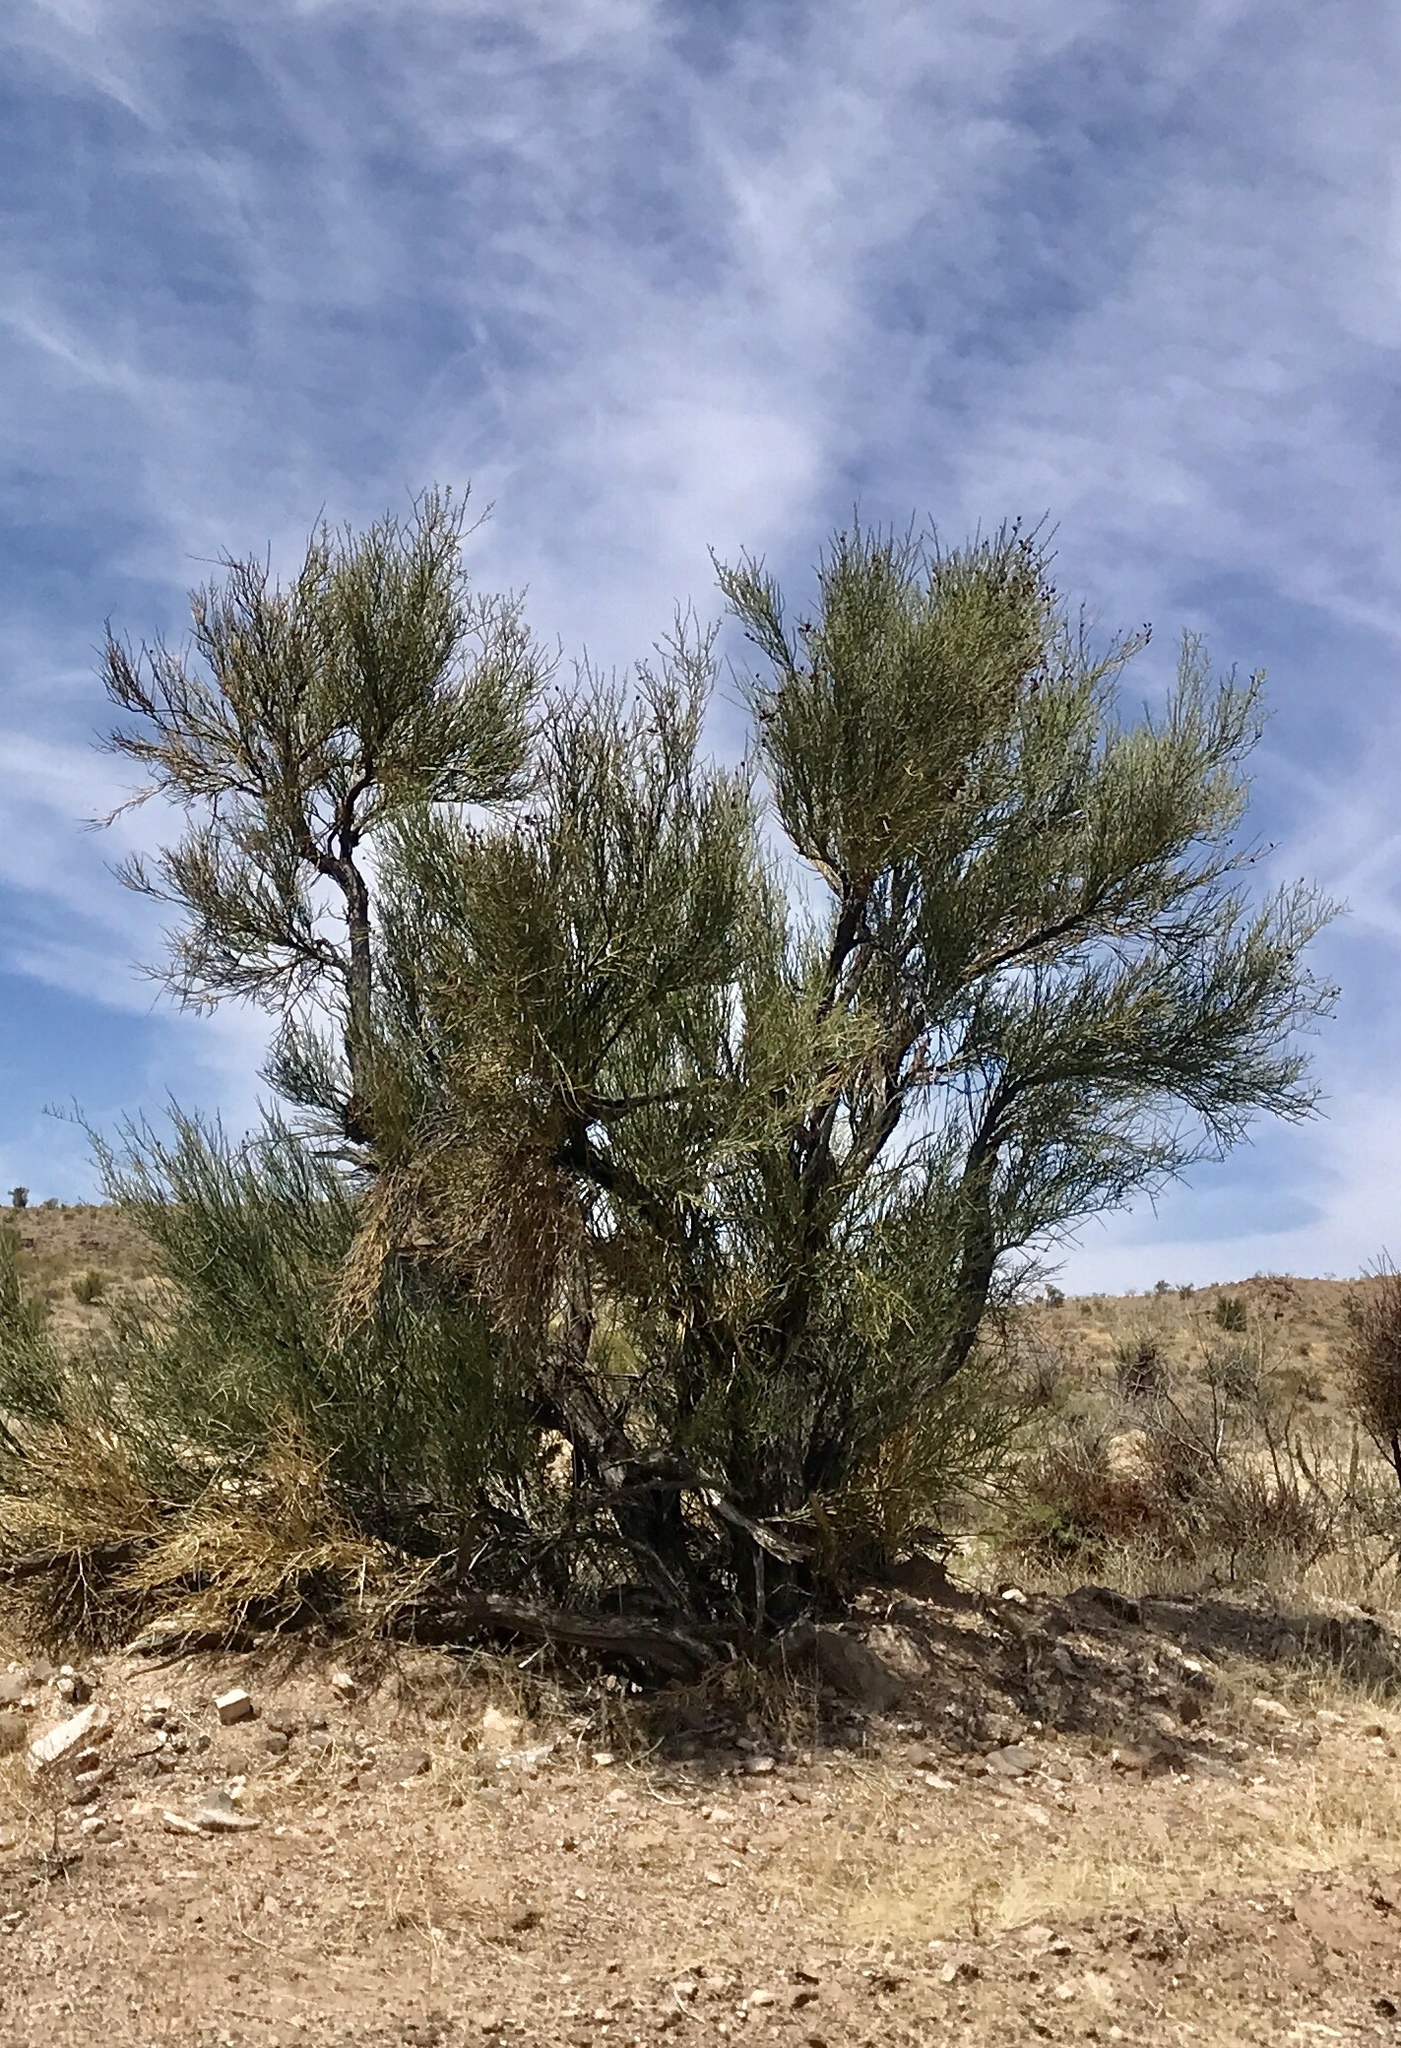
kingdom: Plantae
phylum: Tracheophyta
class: Magnoliopsida
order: Celastrales
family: Celastraceae
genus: Canotia
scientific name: Canotia holacantha
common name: Crucifixion thorns
